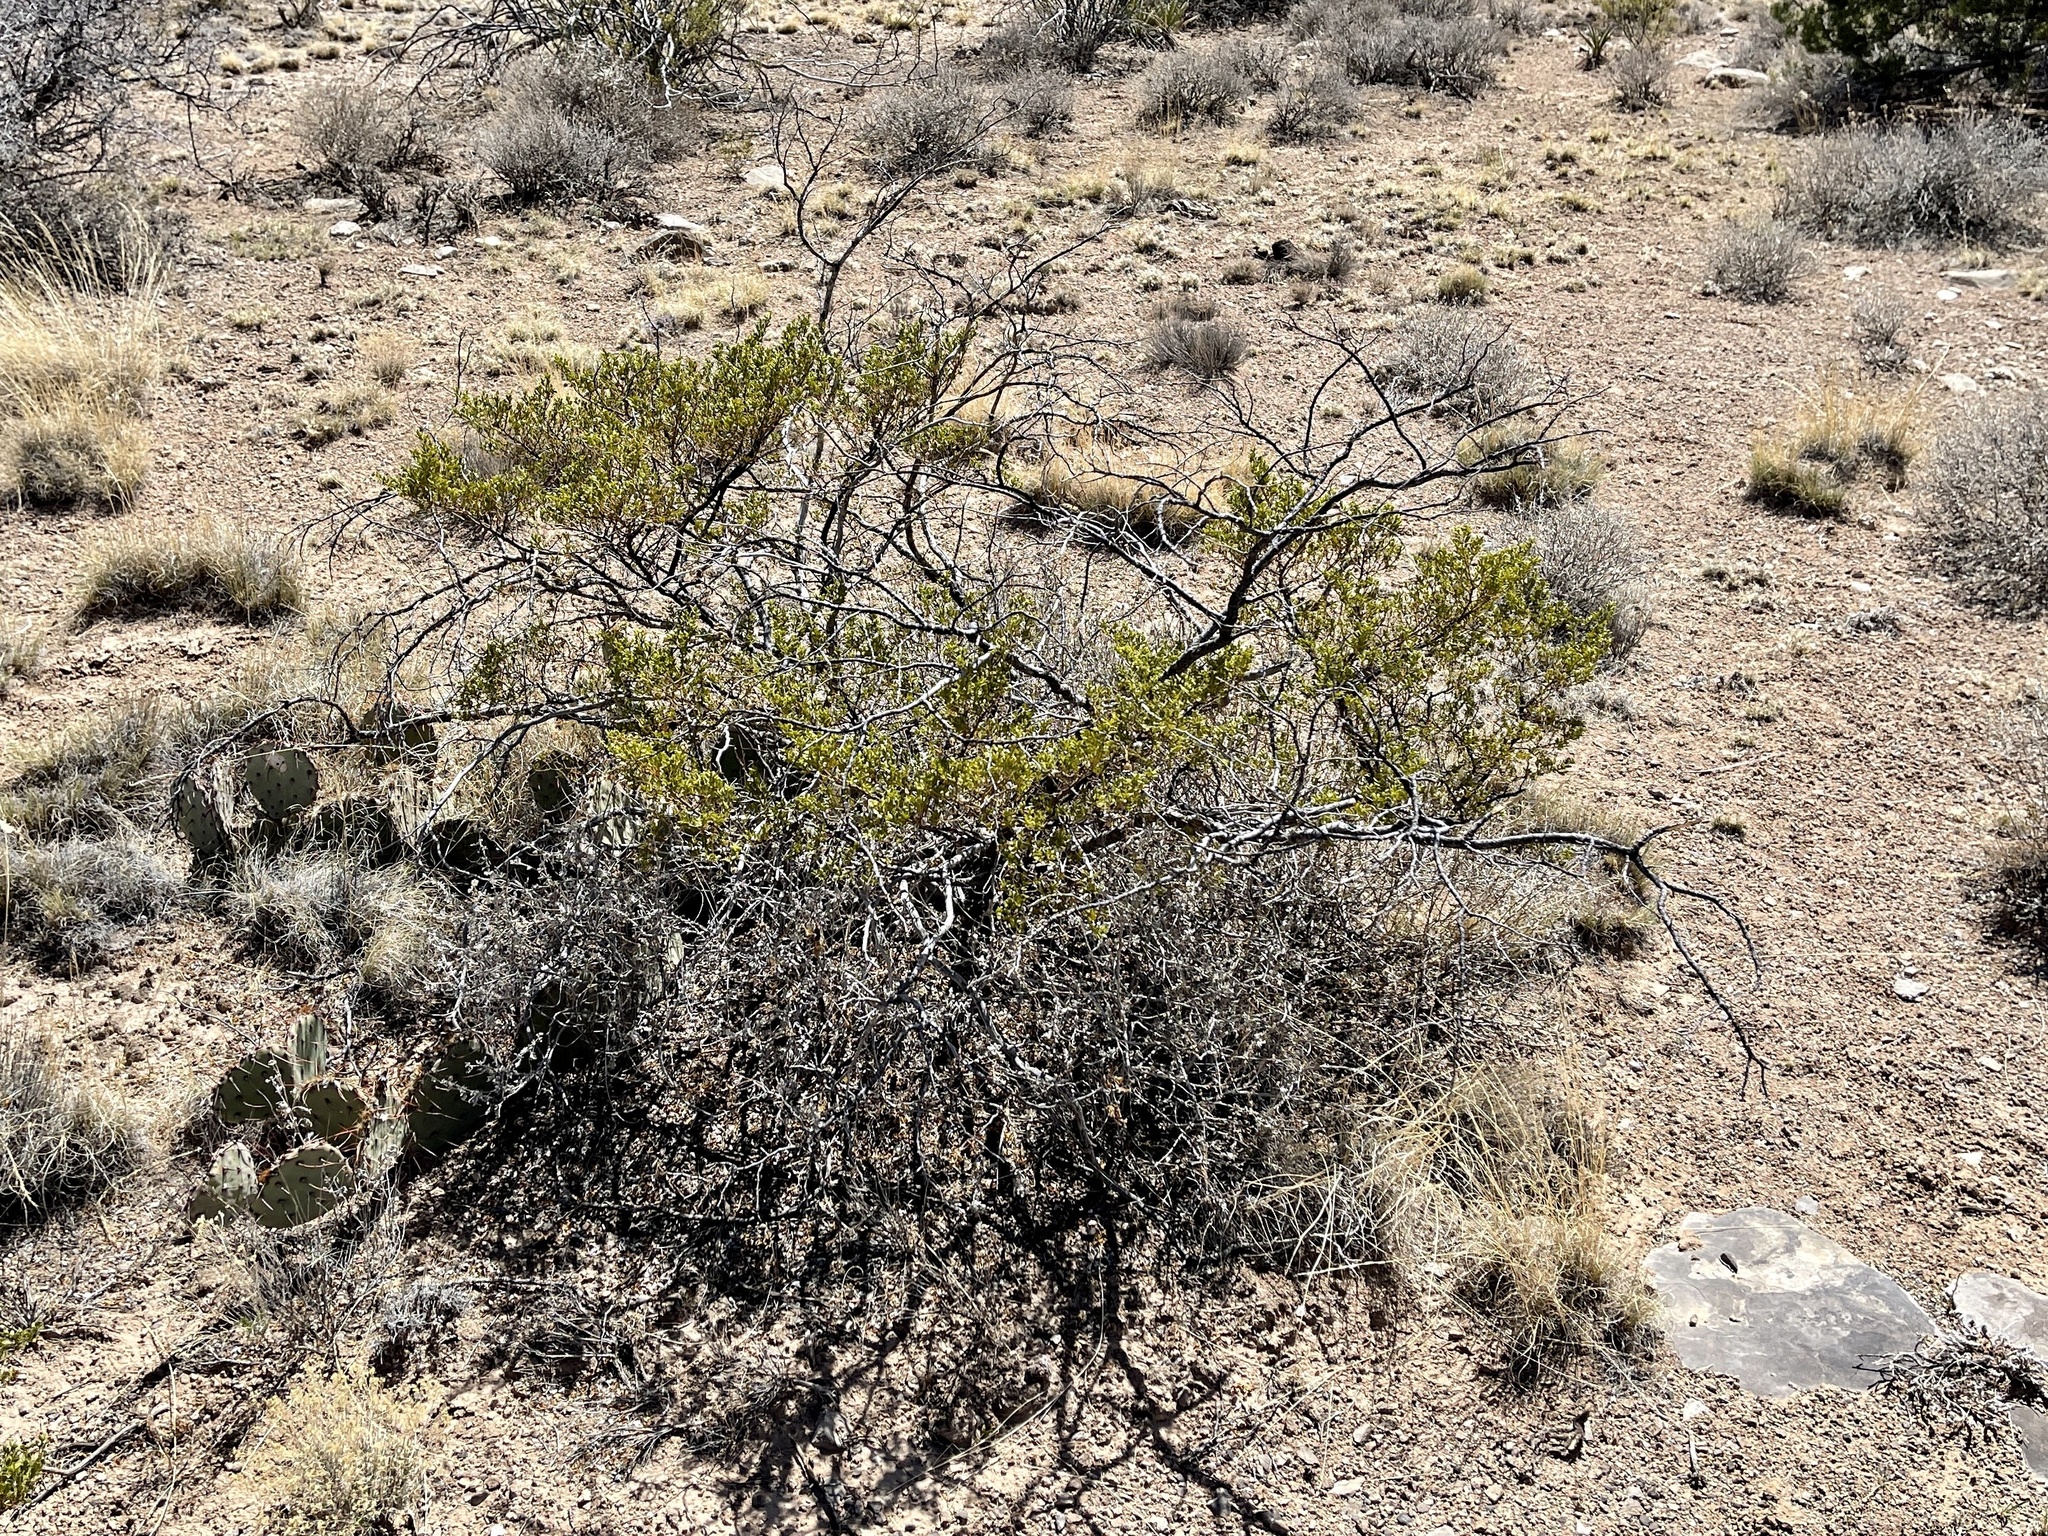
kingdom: Plantae
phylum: Tracheophyta
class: Magnoliopsida
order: Zygophyllales
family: Zygophyllaceae
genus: Larrea
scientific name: Larrea tridentata
